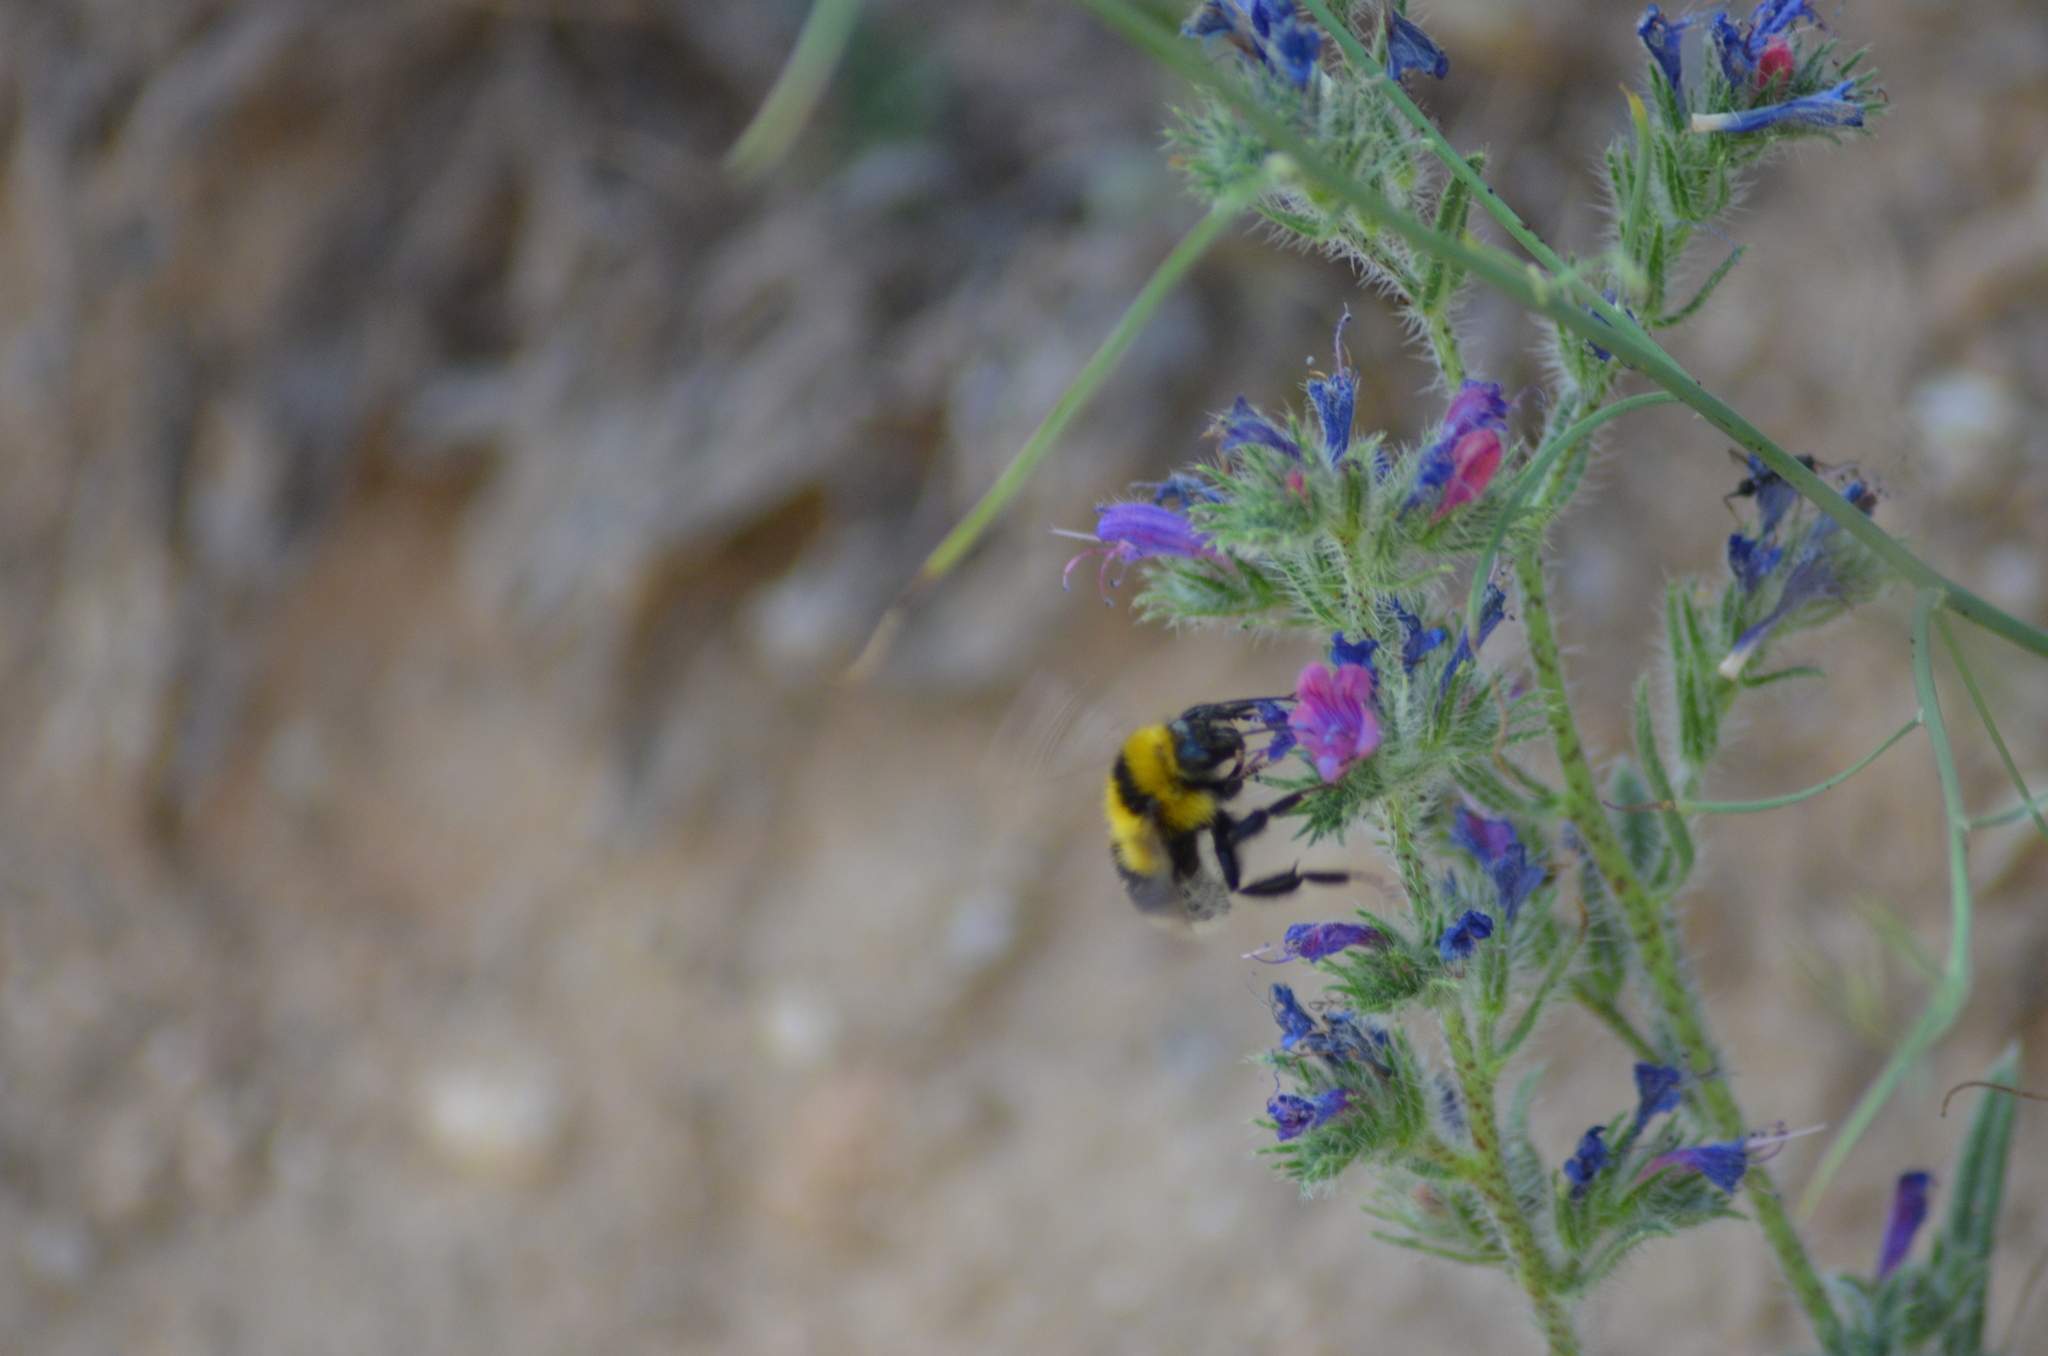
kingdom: Animalia
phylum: Arthropoda
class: Insecta
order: Hymenoptera
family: Apidae
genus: Bombus
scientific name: Bombus ruderatus
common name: Large garden bumblebee
